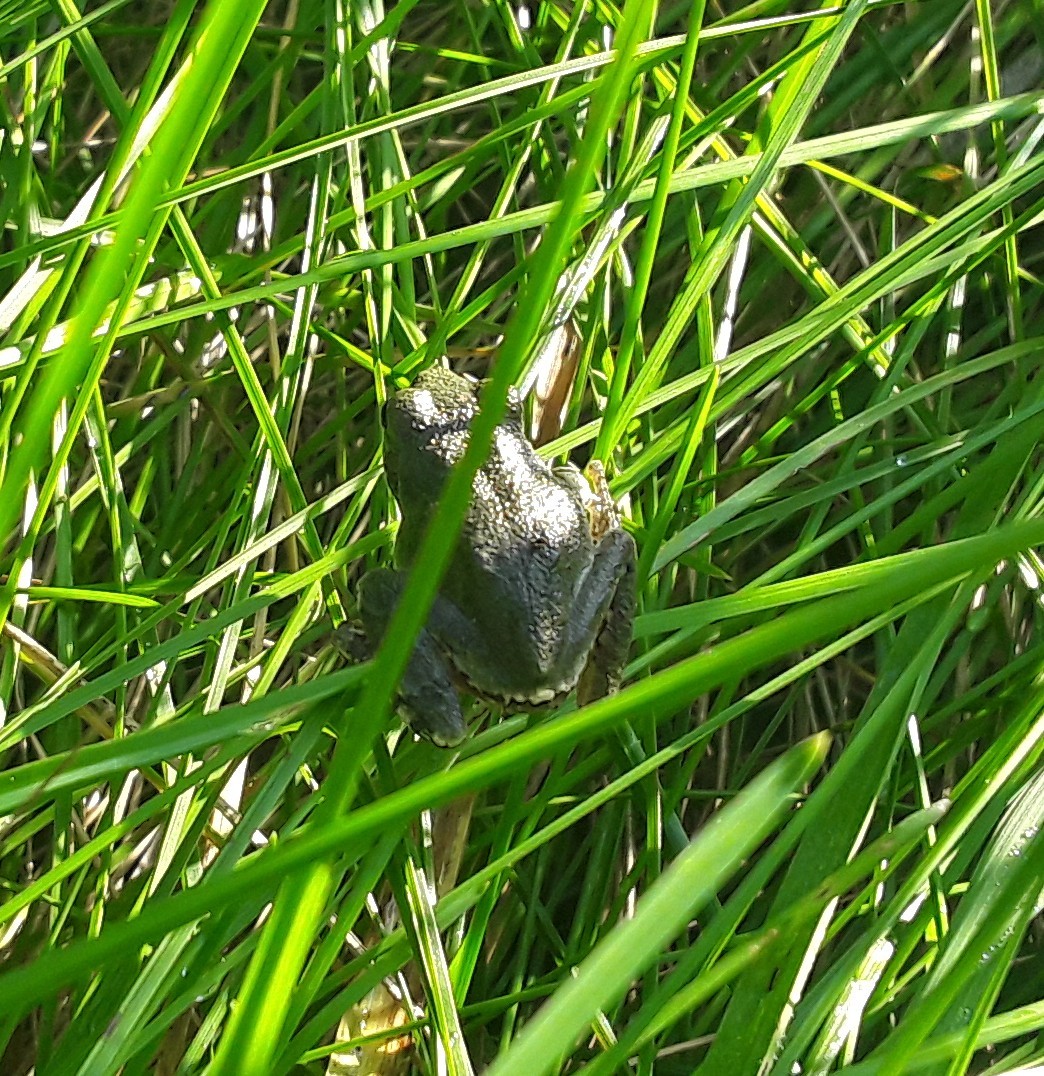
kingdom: Animalia
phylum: Chordata
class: Amphibia
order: Anura
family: Hylidae
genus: Hyla
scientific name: Hyla
